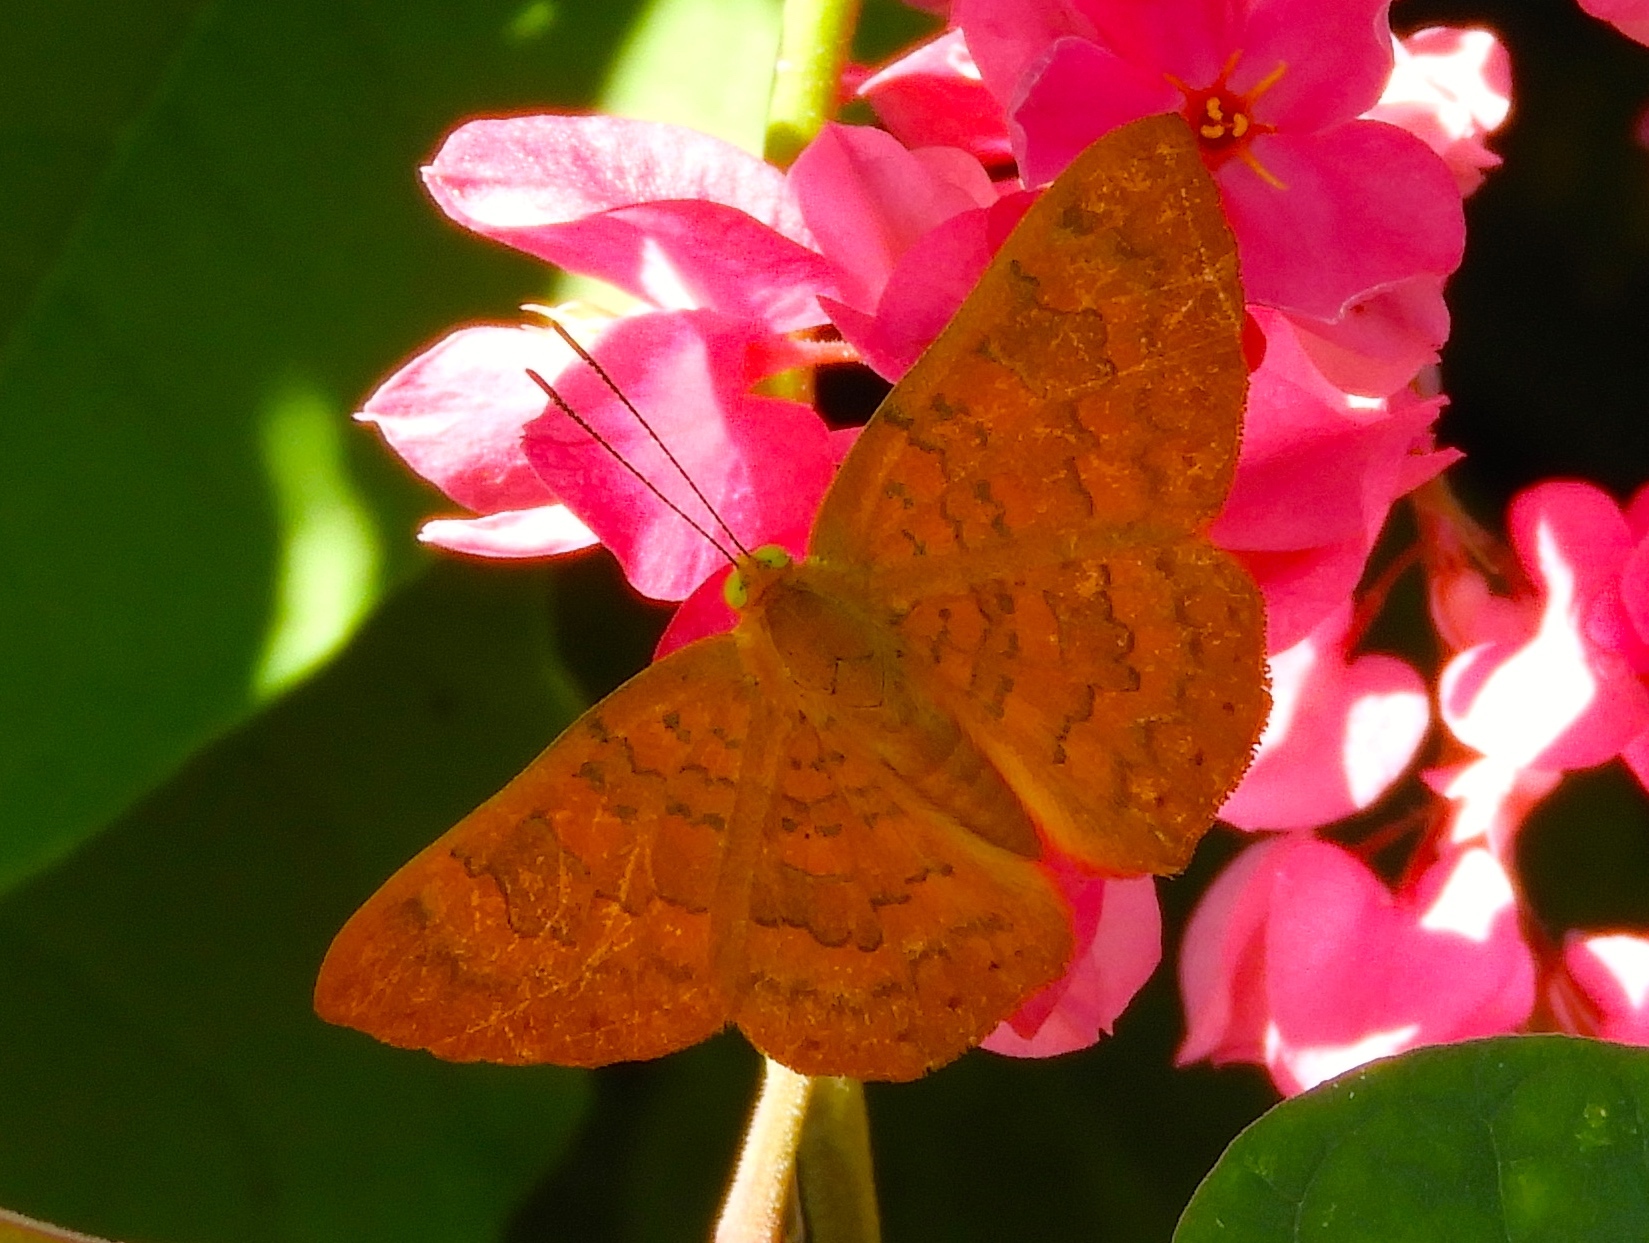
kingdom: Animalia
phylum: Arthropoda
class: Insecta
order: Lepidoptera
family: Lycaenidae
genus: Emesis
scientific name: Emesis vulpina
